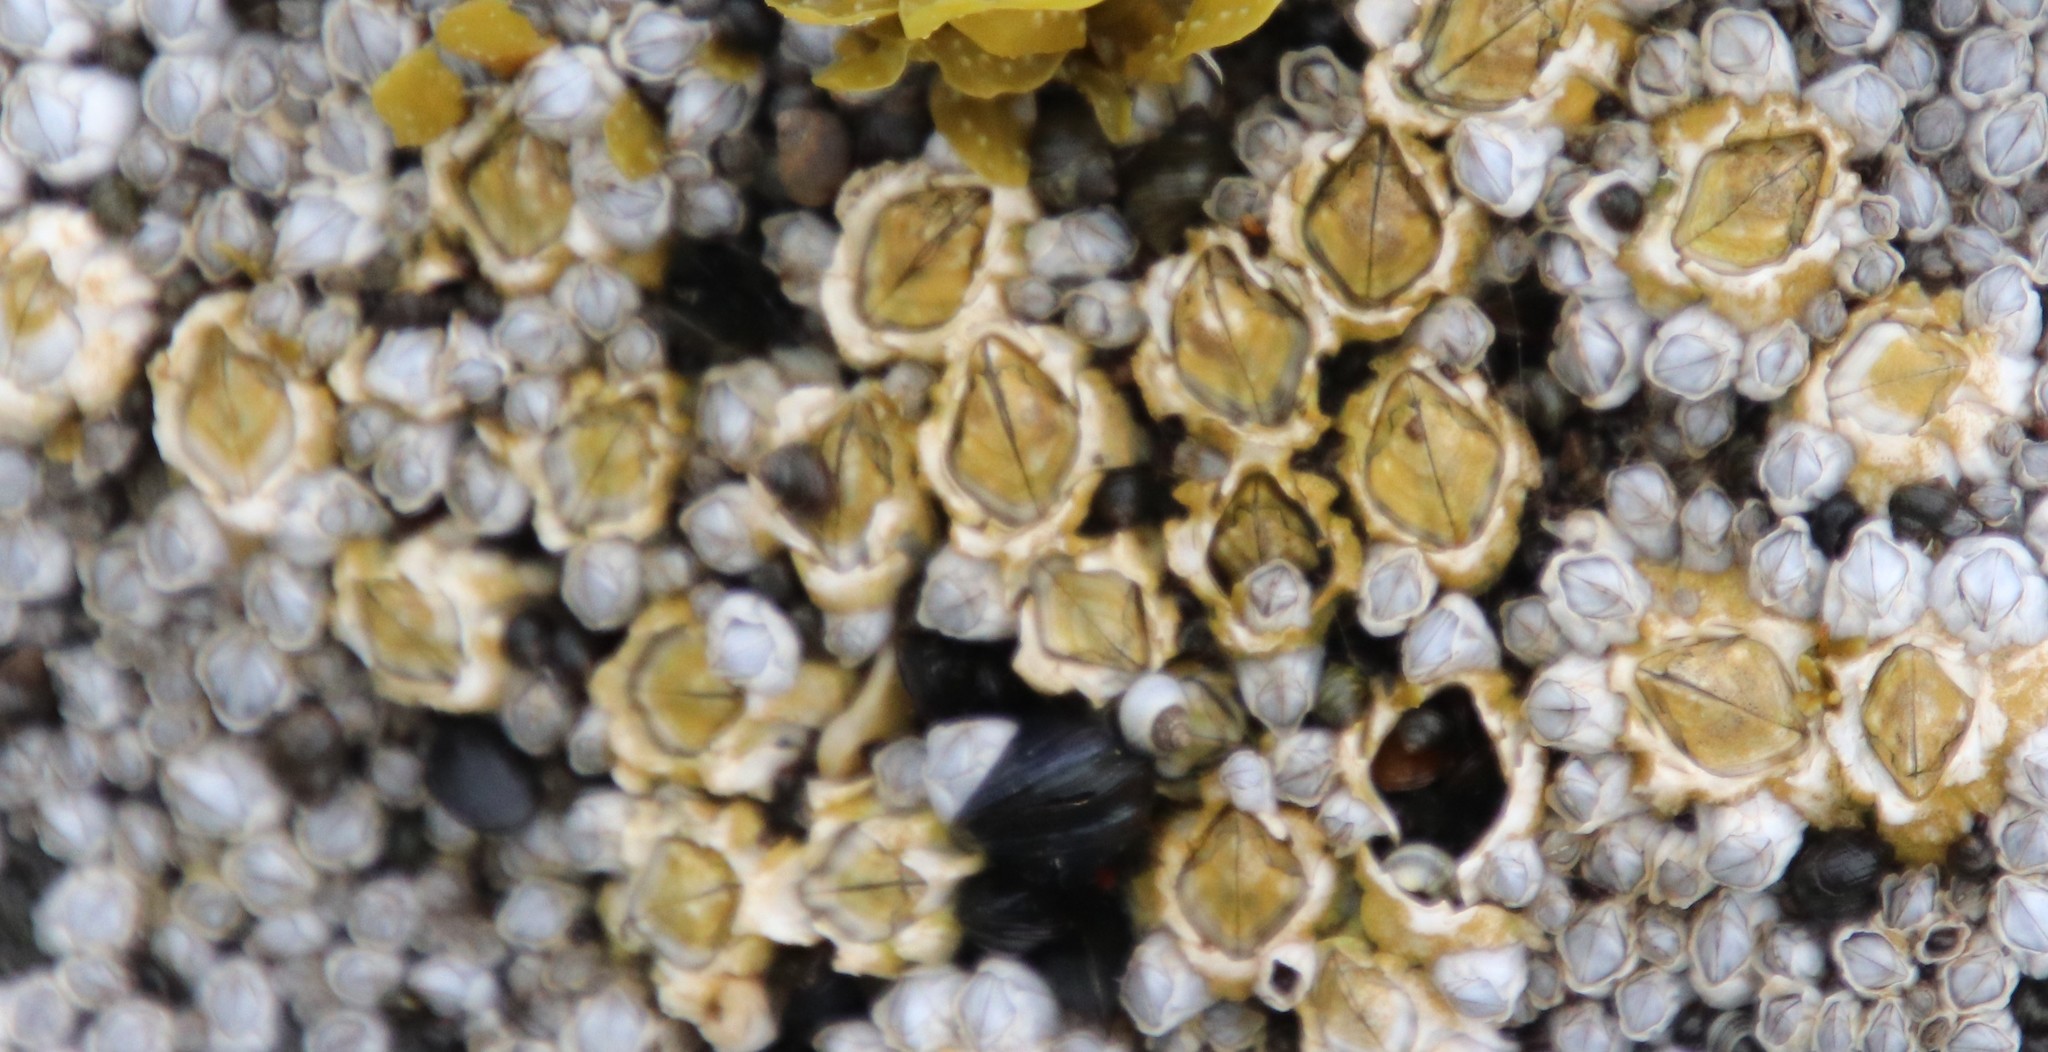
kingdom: Animalia
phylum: Arthropoda
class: Maxillopoda
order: Sessilia
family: Archaeobalanidae
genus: Semibalanus
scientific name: Semibalanus balanoides
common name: Acorn barnacle
